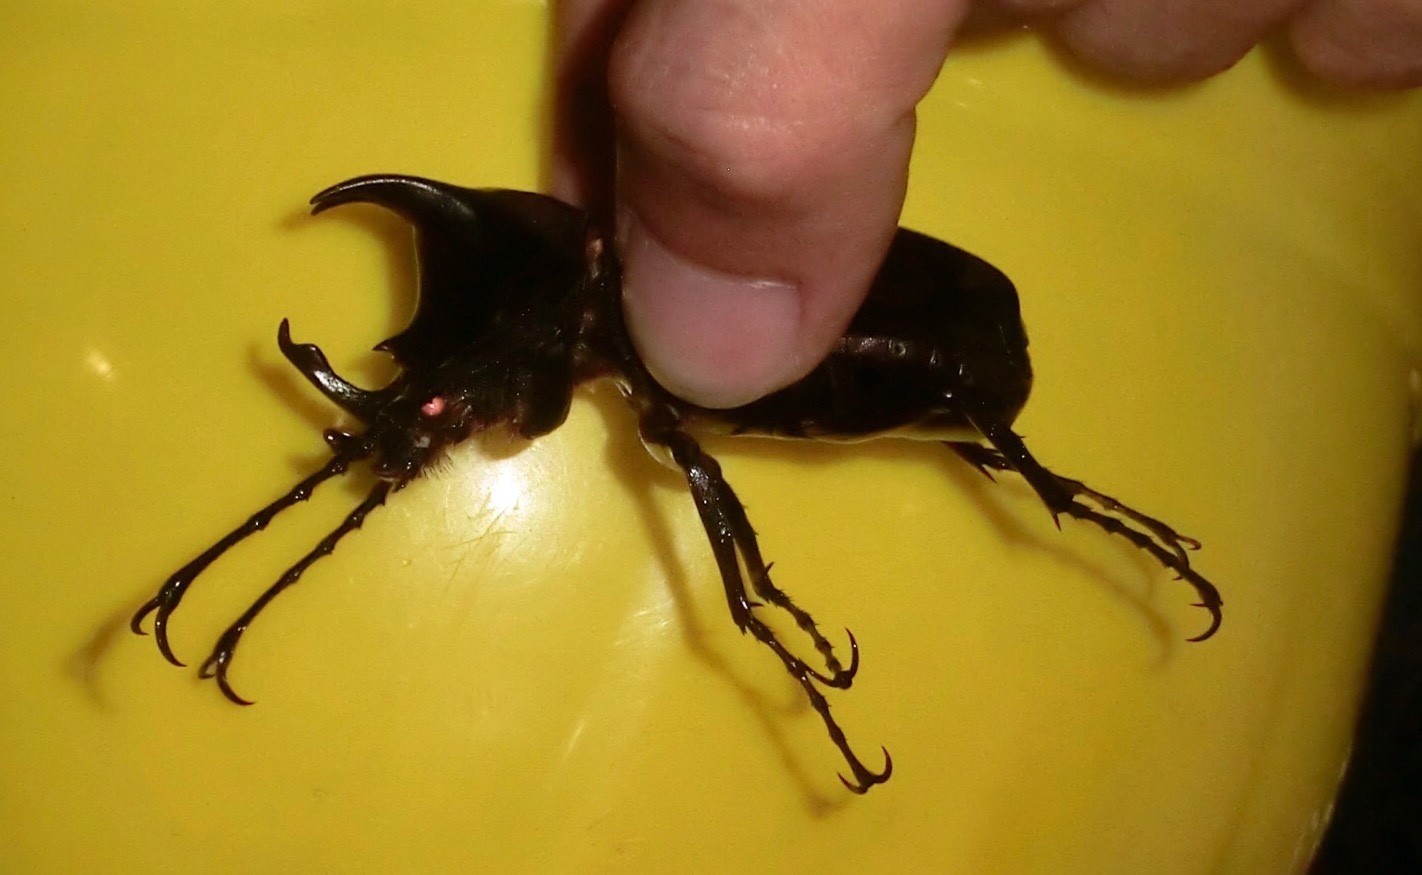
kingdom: Animalia
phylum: Arthropoda
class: Insecta
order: Coleoptera
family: Scarabaeidae
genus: Chalcosoma
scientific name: Chalcosoma moellenkampi
